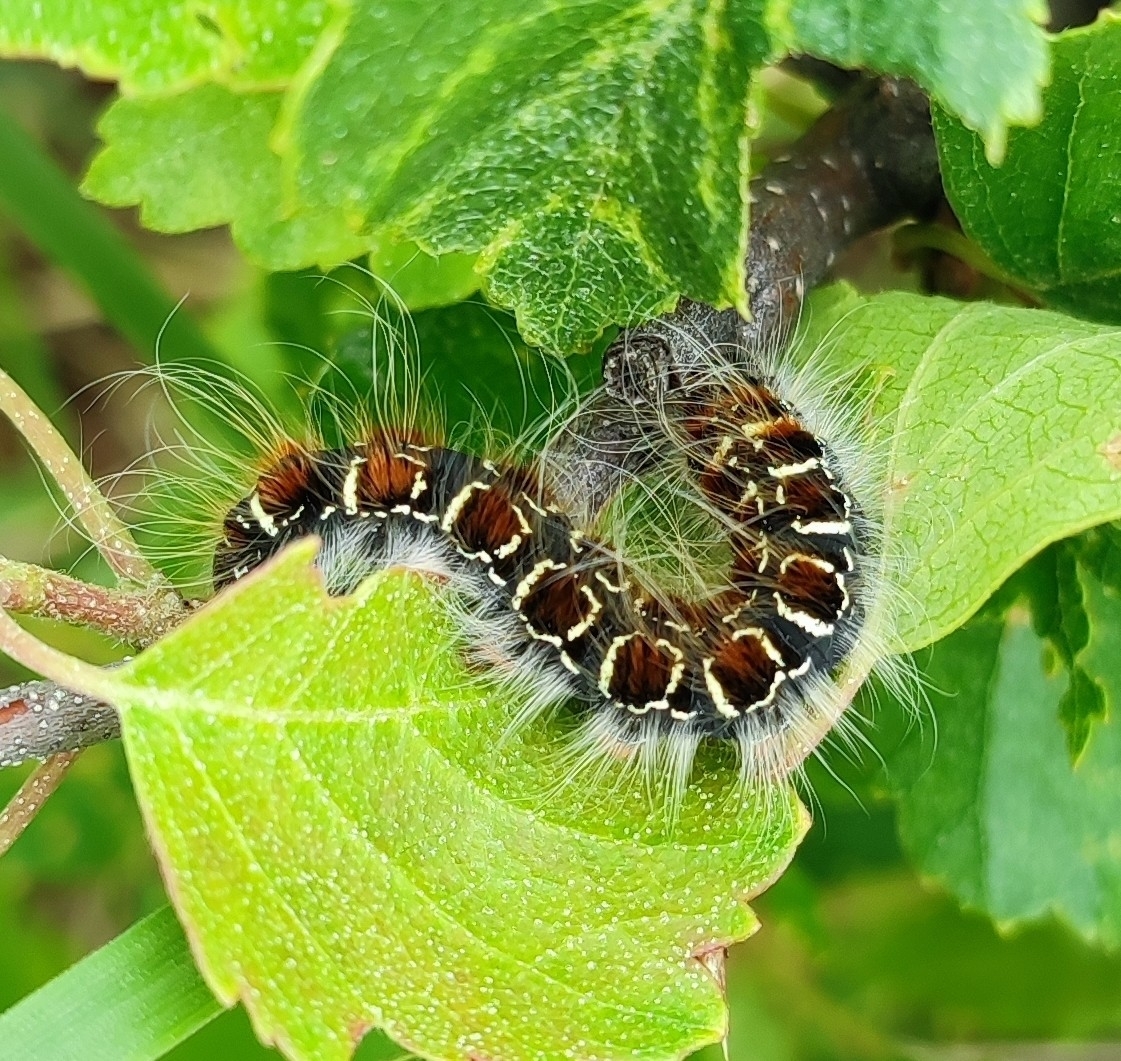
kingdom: Animalia
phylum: Arthropoda
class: Insecta
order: Lepidoptera
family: Lasiocampidae
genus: Eriogaster
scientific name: Eriogaster lanestris
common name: Small eggar
